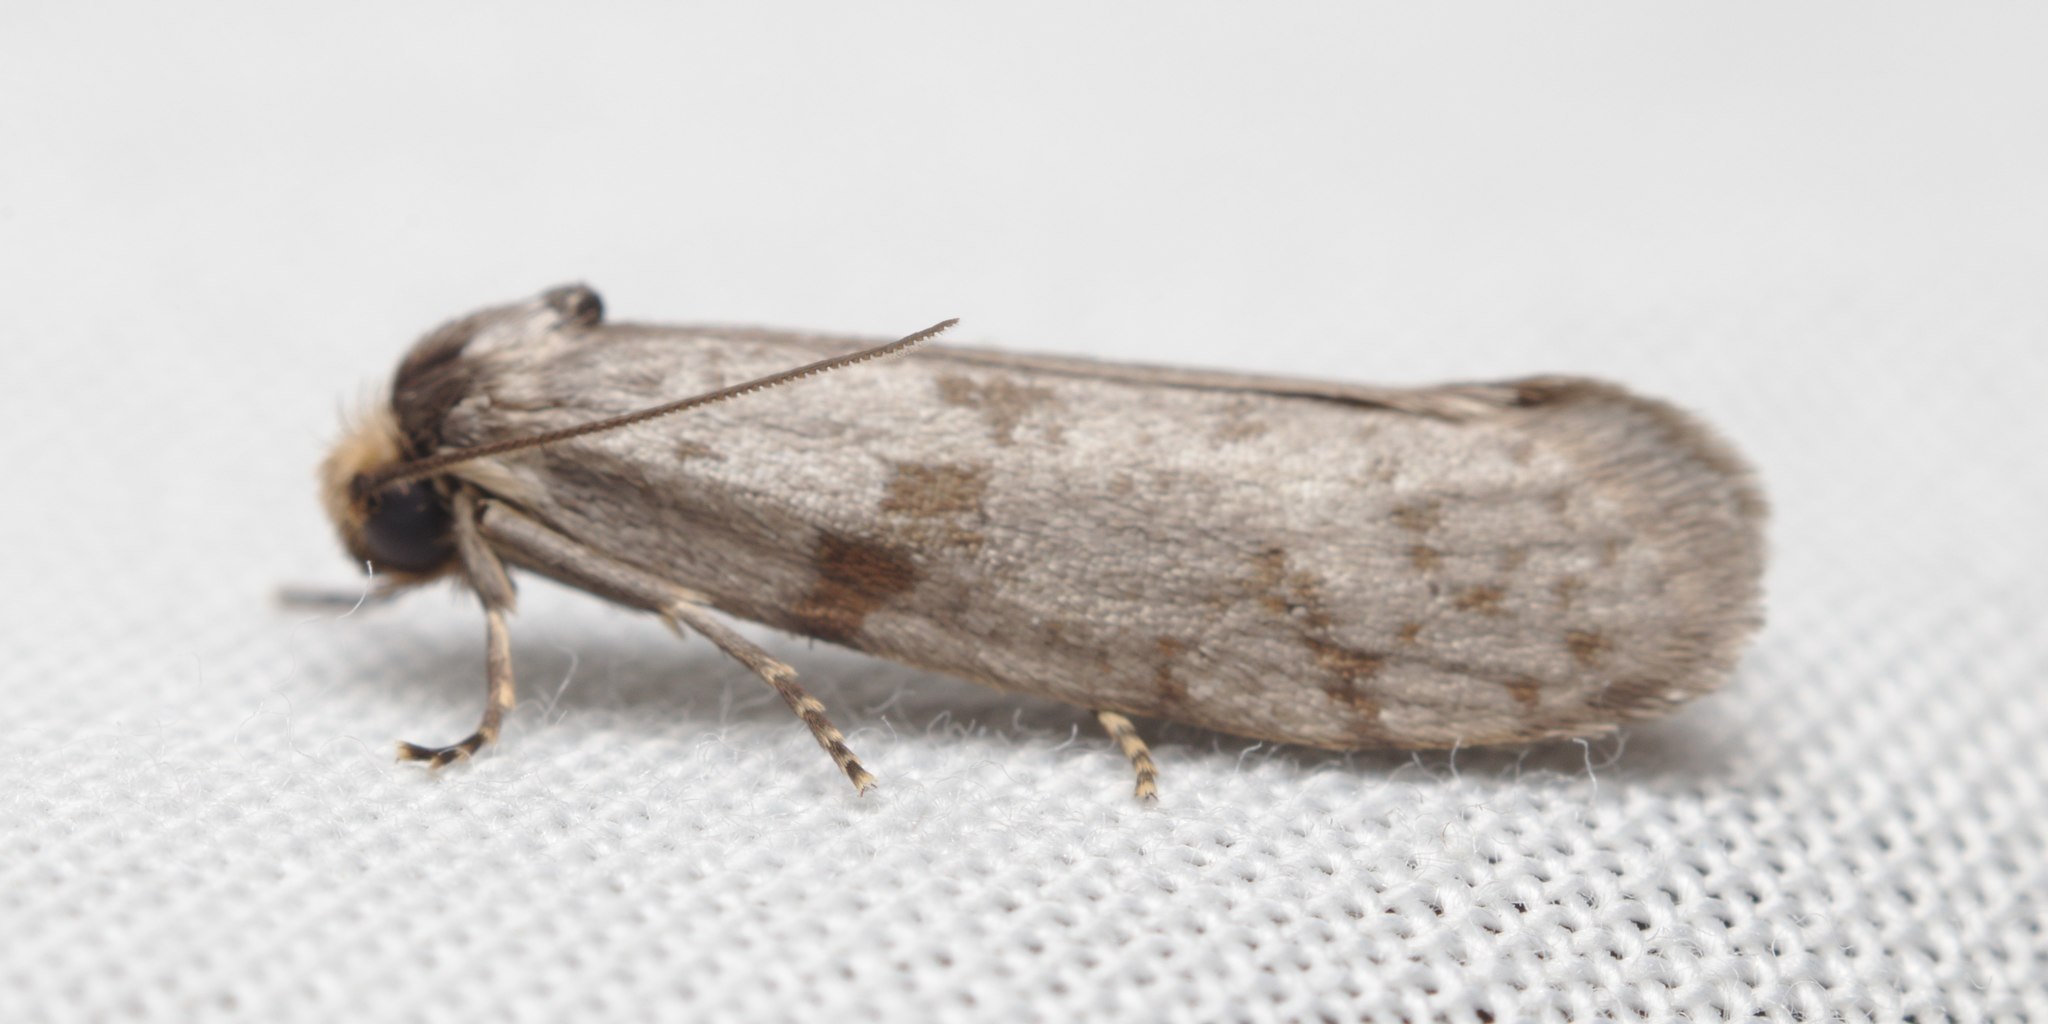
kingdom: Animalia
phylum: Arthropoda
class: Insecta
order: Lepidoptera
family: Psychidae
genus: Lepidoscia
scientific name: Lepidoscia protorna
